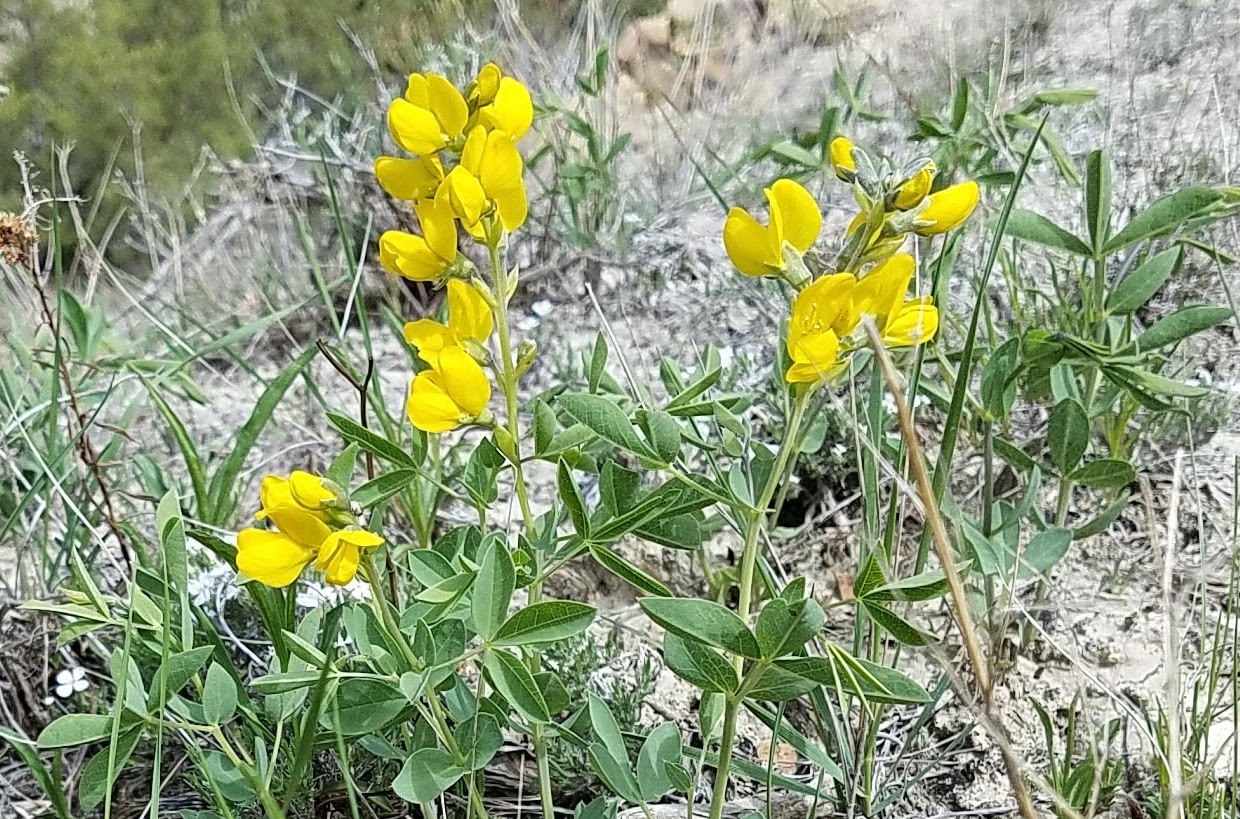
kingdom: Plantae
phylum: Tracheophyta
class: Magnoliopsida
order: Fabales
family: Fabaceae
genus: Thermopsis
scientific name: Thermopsis rhombifolia
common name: Circle-pod-pea
